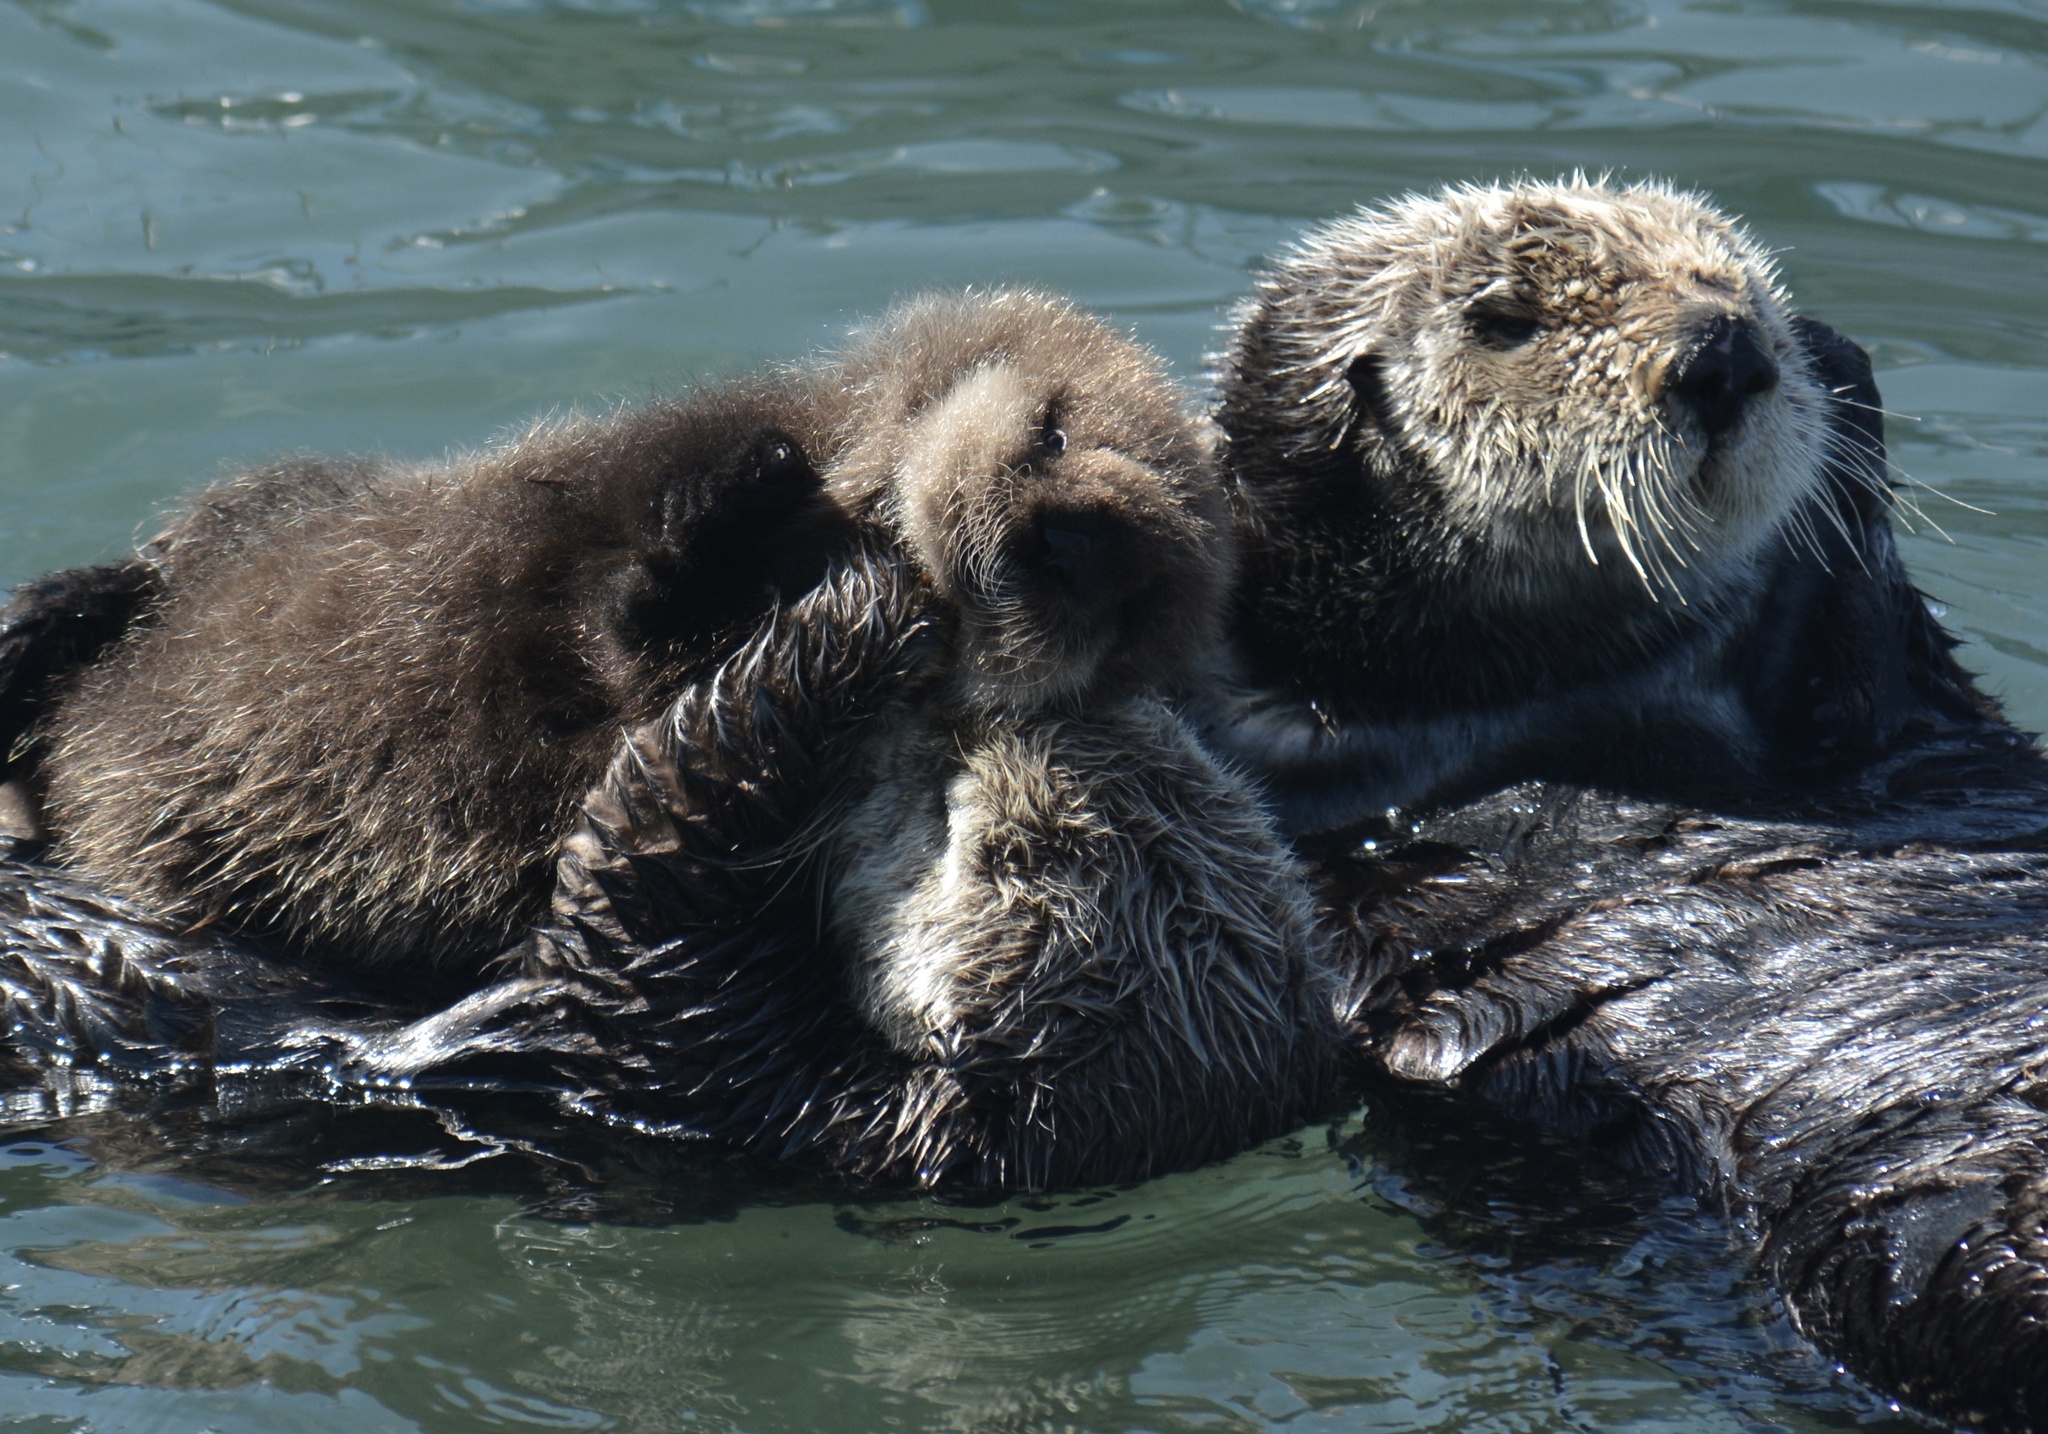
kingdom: Animalia
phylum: Chordata
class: Mammalia
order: Carnivora
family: Mustelidae
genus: Enhydra
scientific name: Enhydra lutris
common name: Sea otter
